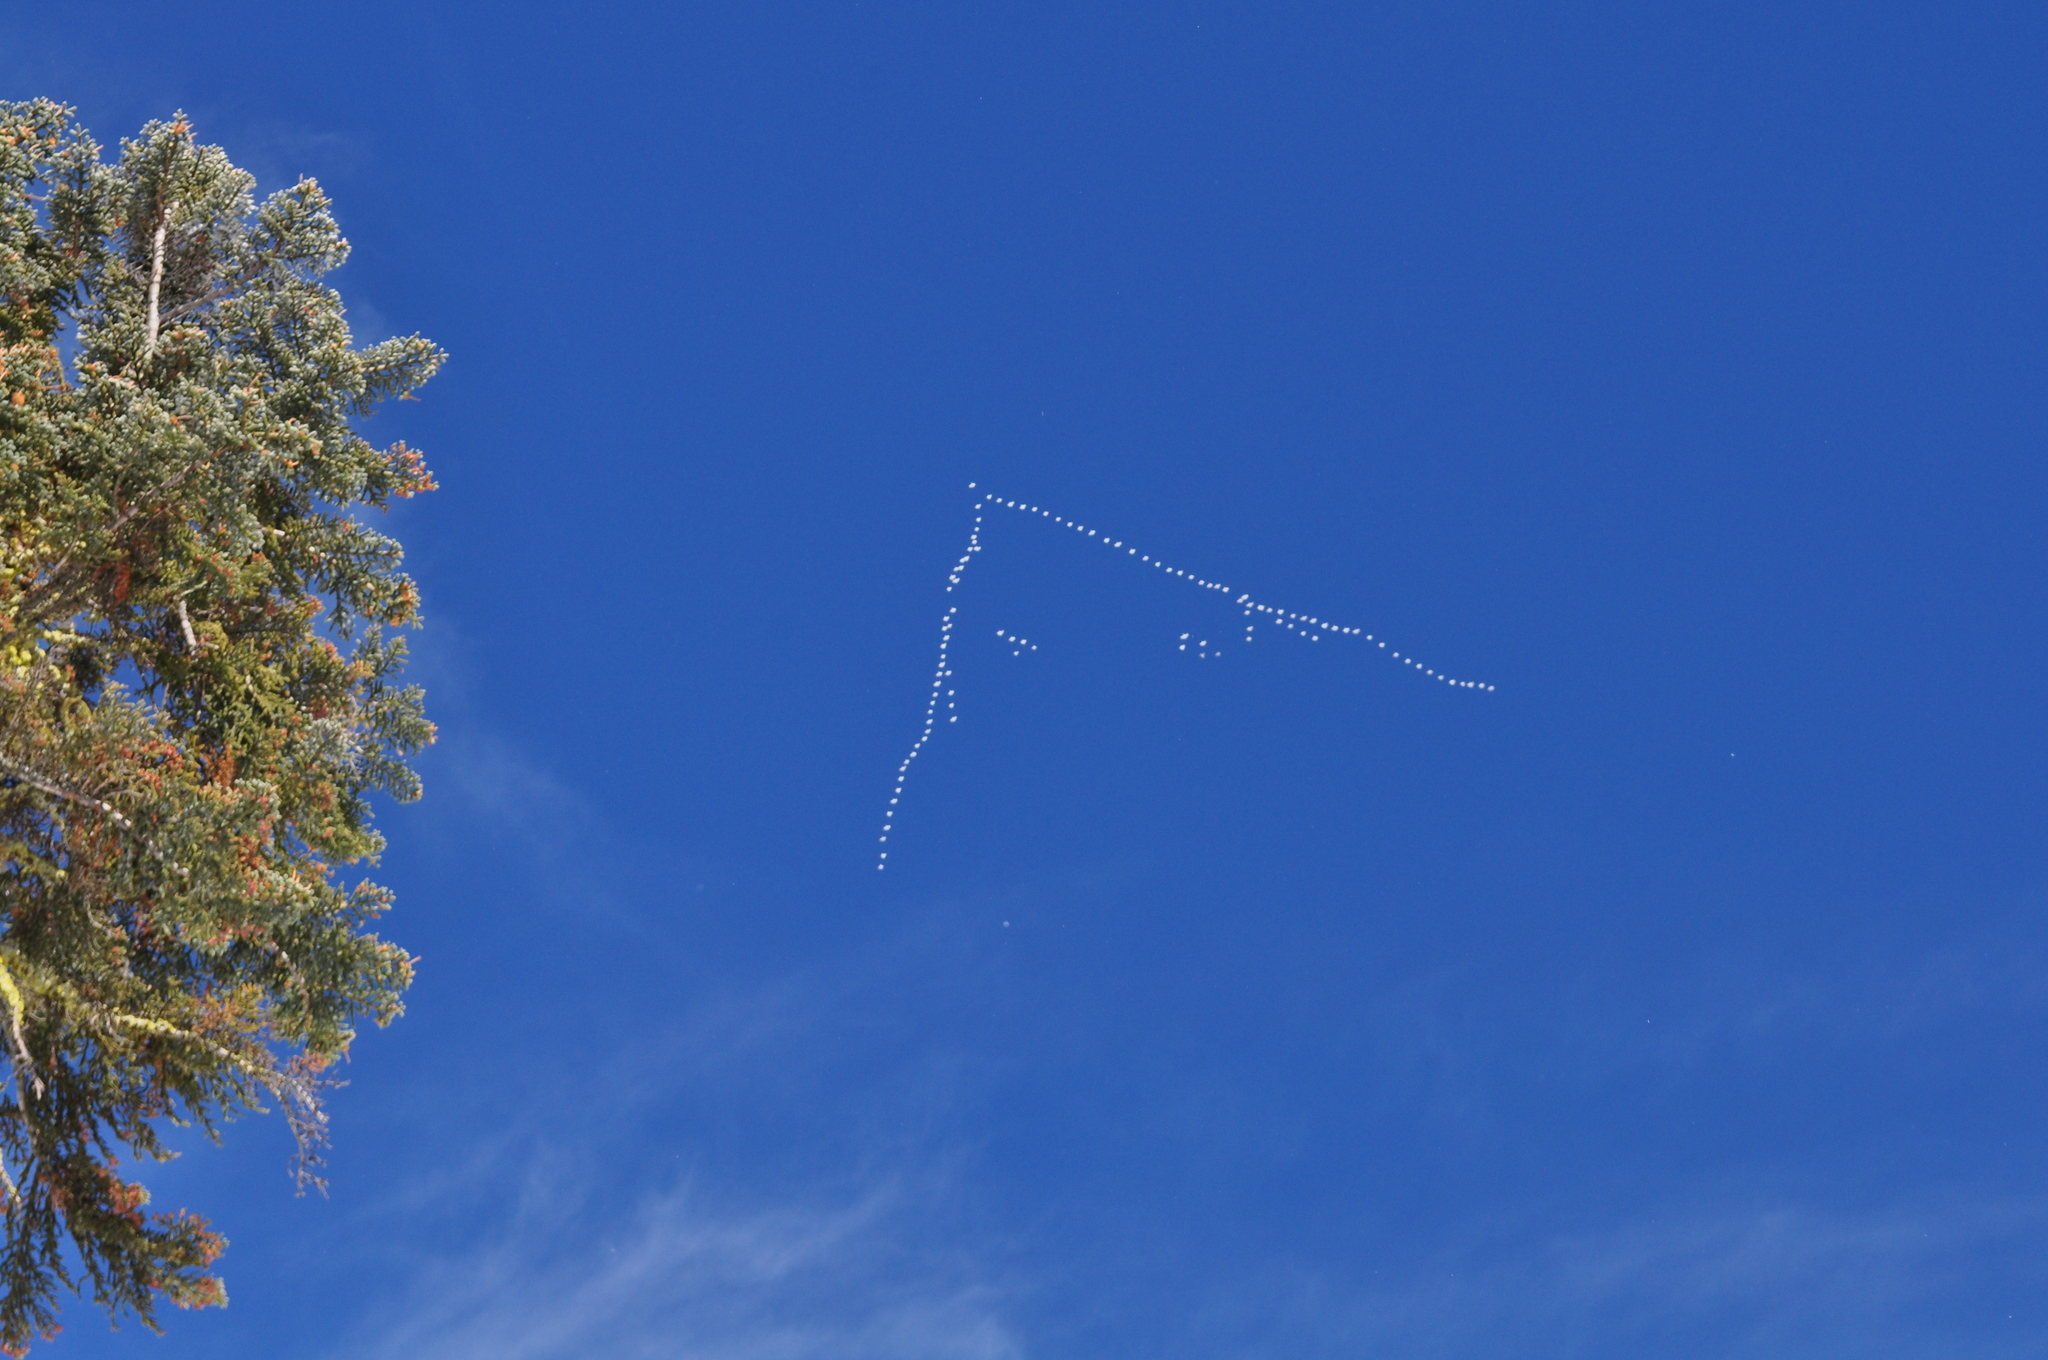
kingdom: Animalia
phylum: Chordata
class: Aves
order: Anseriformes
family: Anatidae
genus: Anser
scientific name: Anser caerulescens
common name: Snow goose
